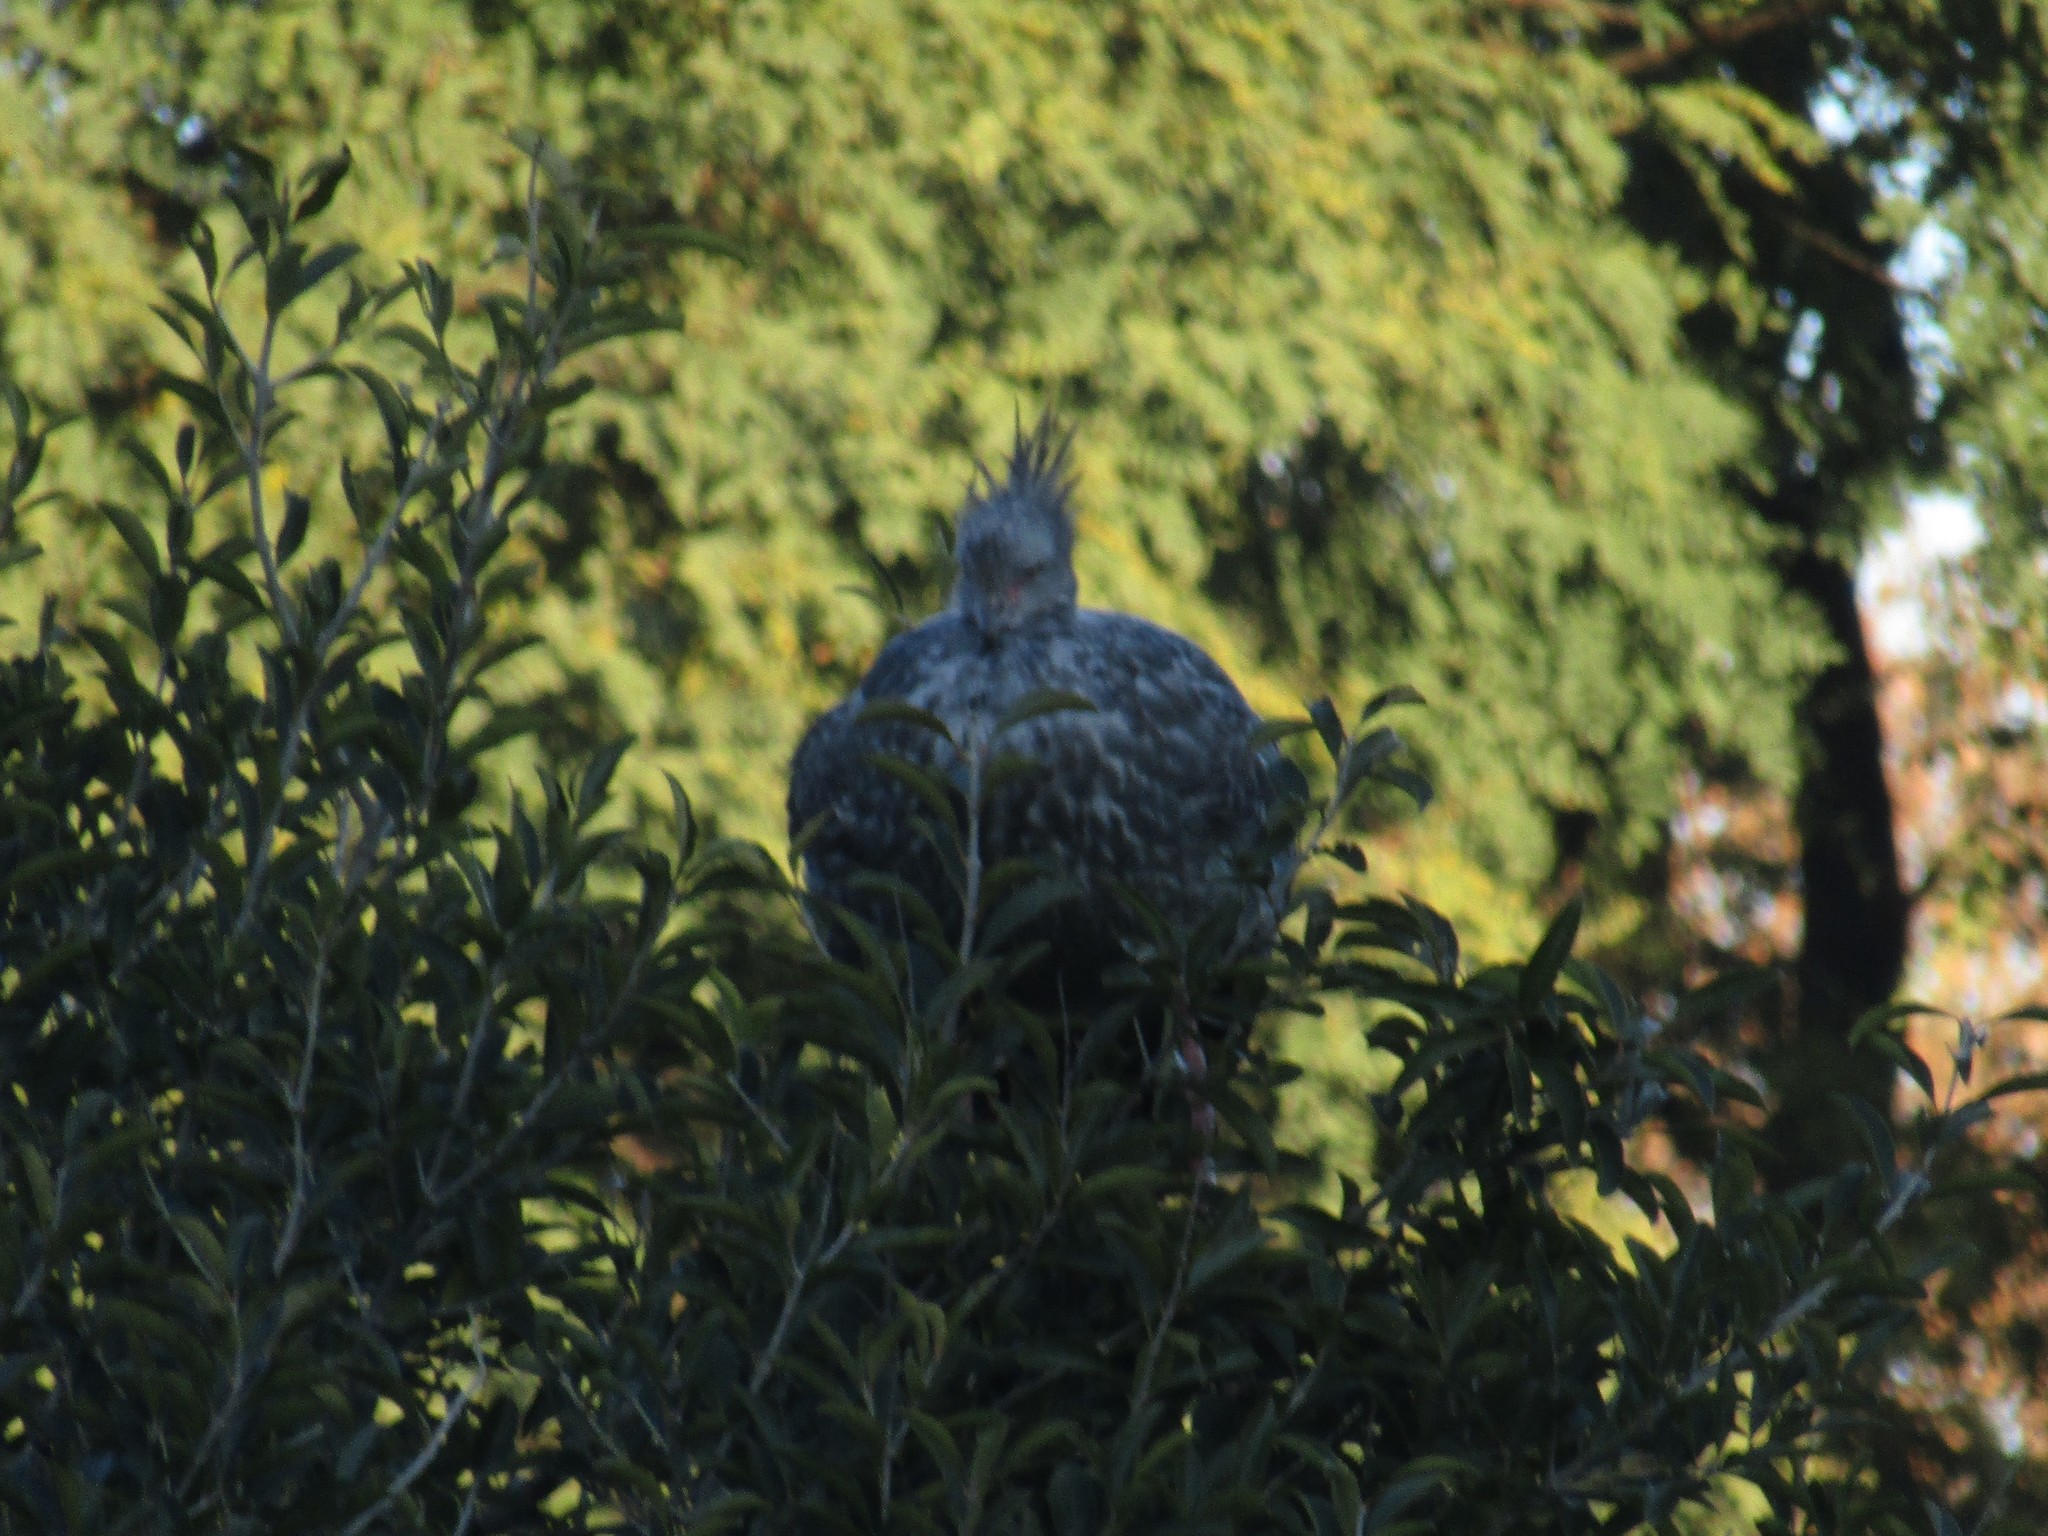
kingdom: Animalia
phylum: Chordata
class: Aves
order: Anseriformes
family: Anhimidae
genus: Chauna
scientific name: Chauna torquata
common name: Southern screamer
